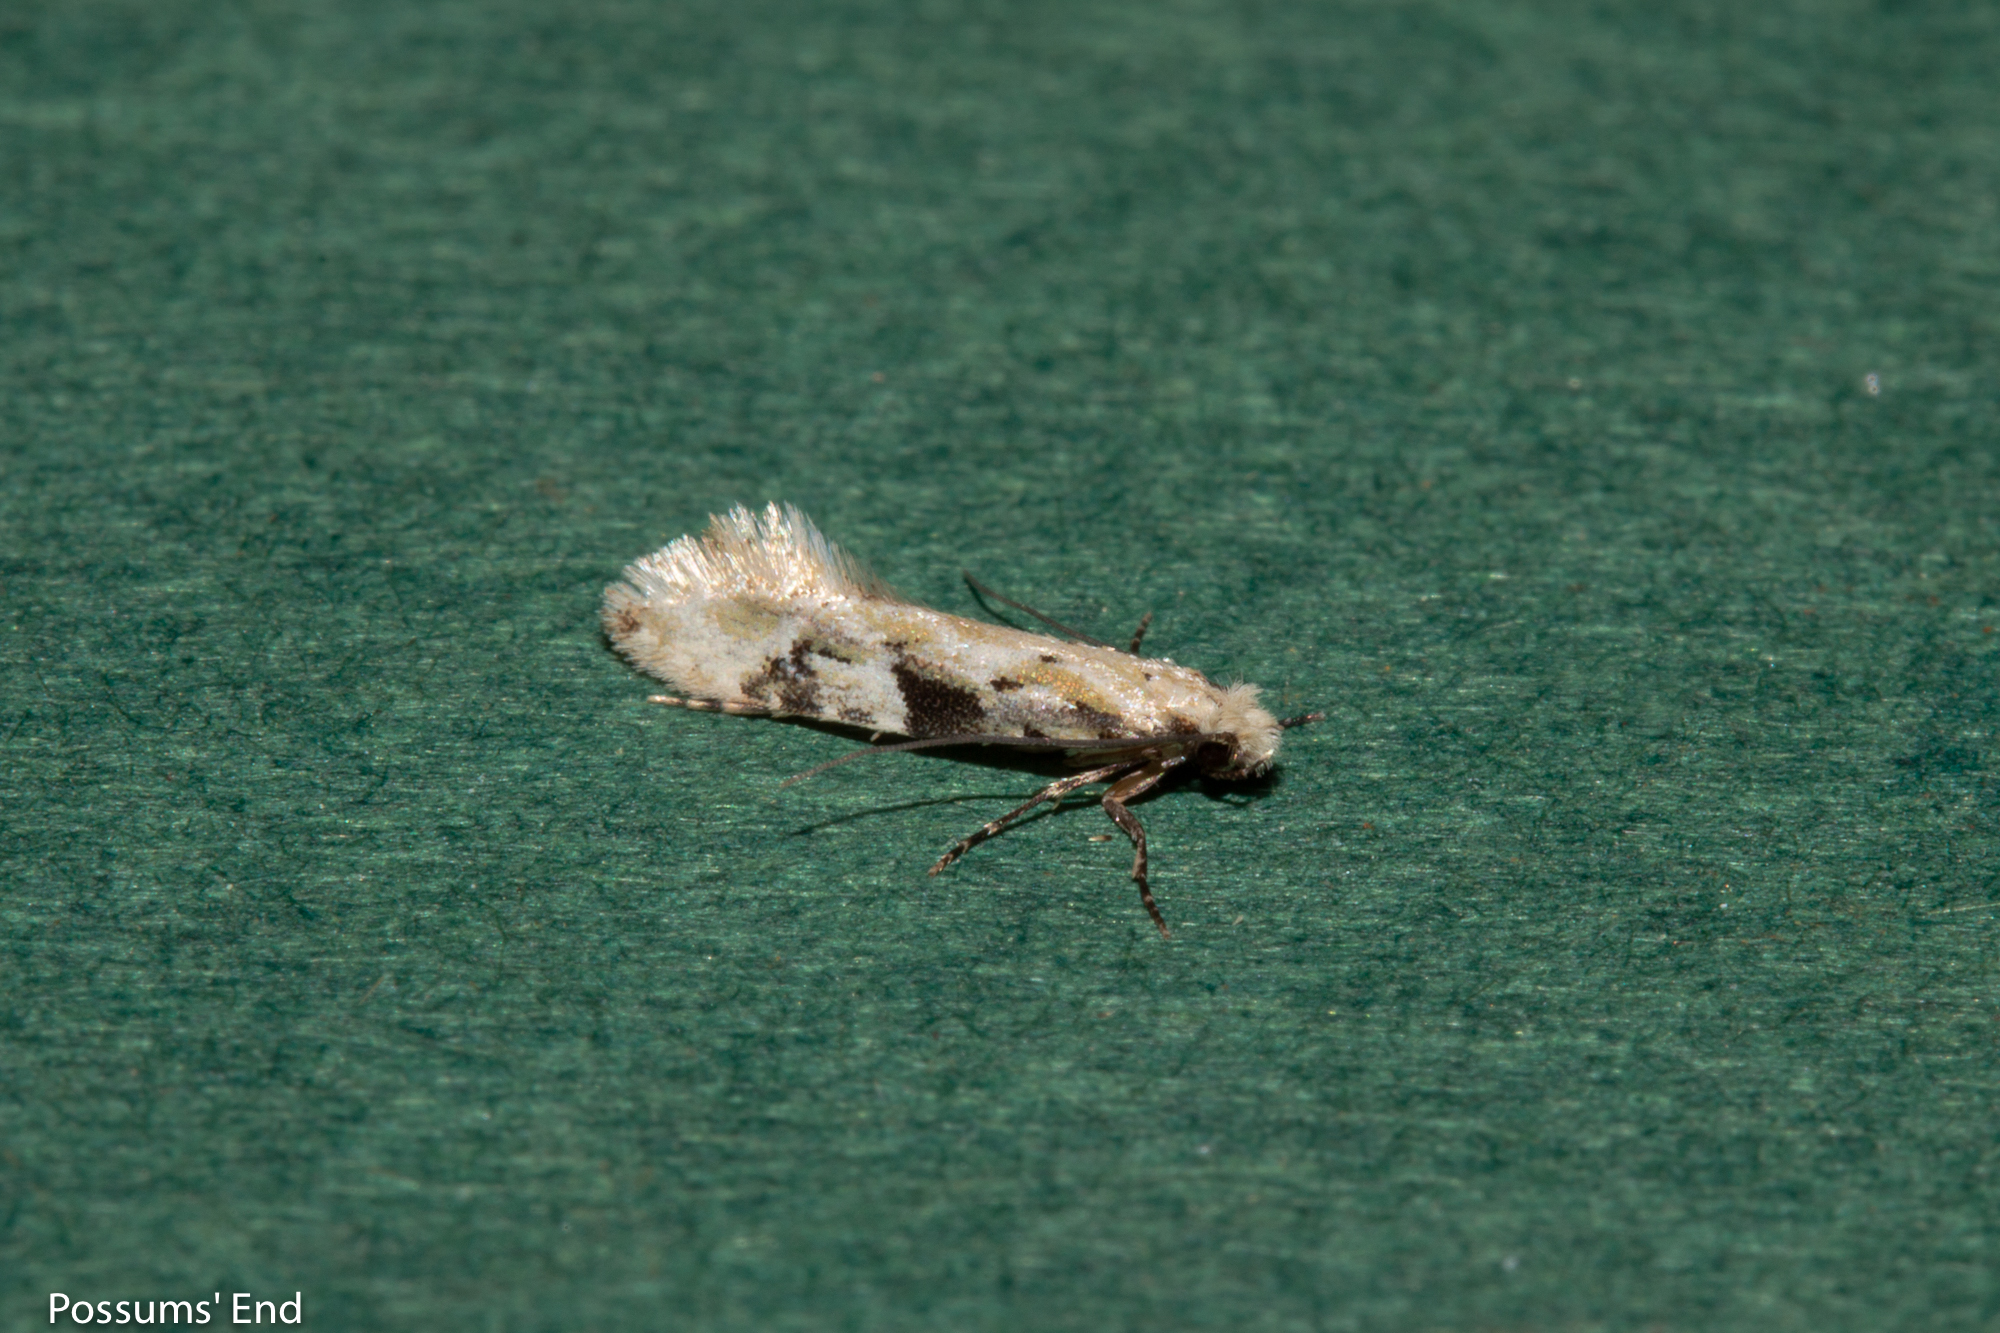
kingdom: Animalia
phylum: Arthropoda
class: Insecta
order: Lepidoptera
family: Tineidae
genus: Crypsitricha
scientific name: Crypsitricha mesotypa
